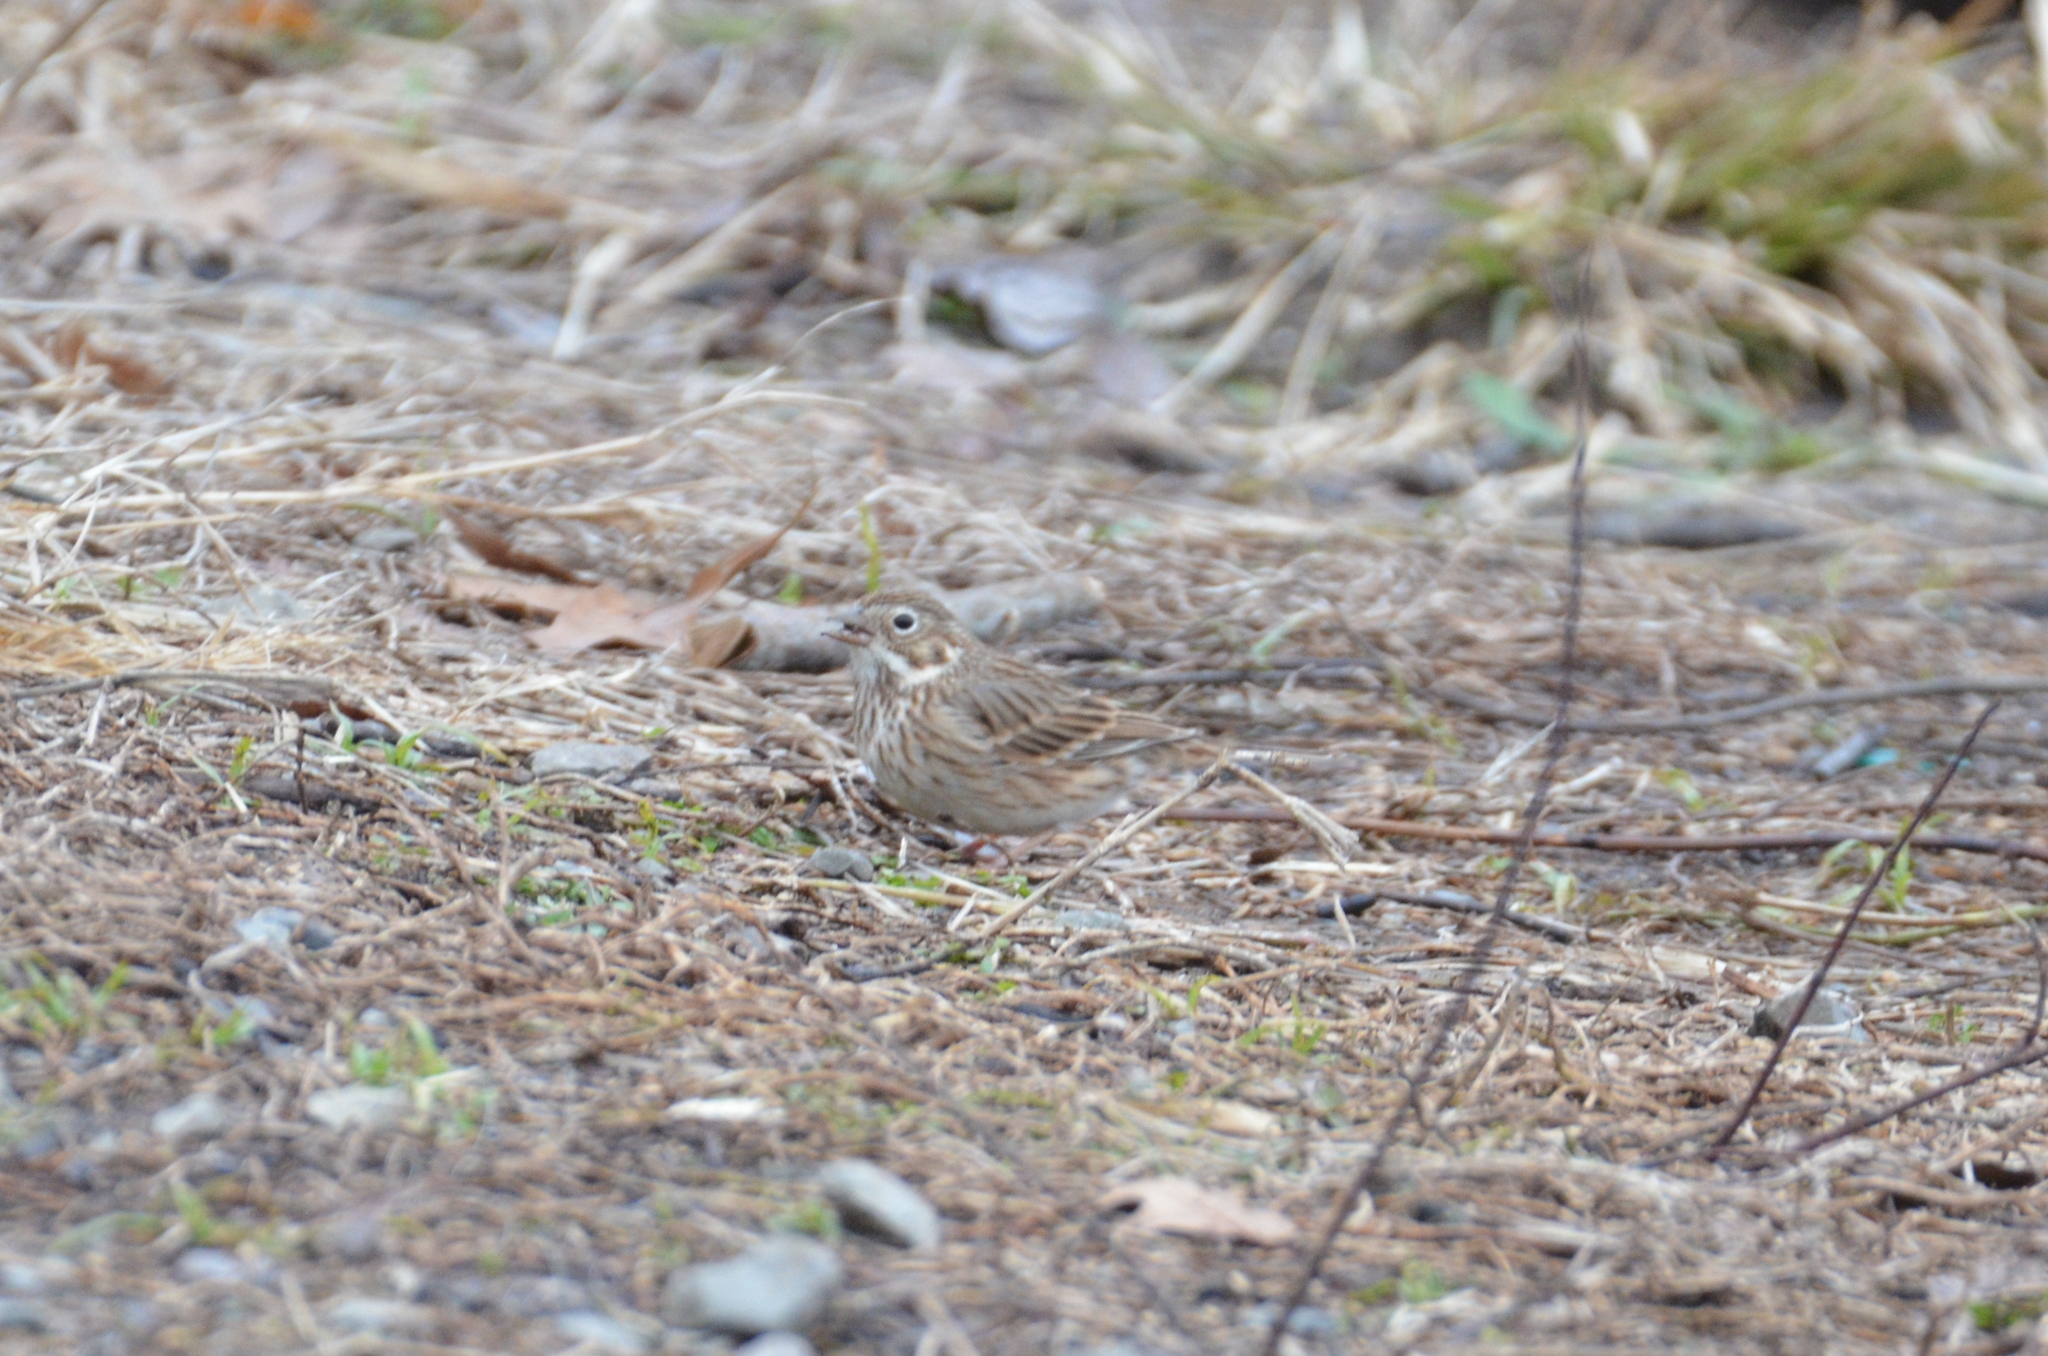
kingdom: Animalia
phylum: Chordata
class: Aves
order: Passeriformes
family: Passerellidae
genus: Pooecetes
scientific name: Pooecetes gramineus
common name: Vesper sparrow
